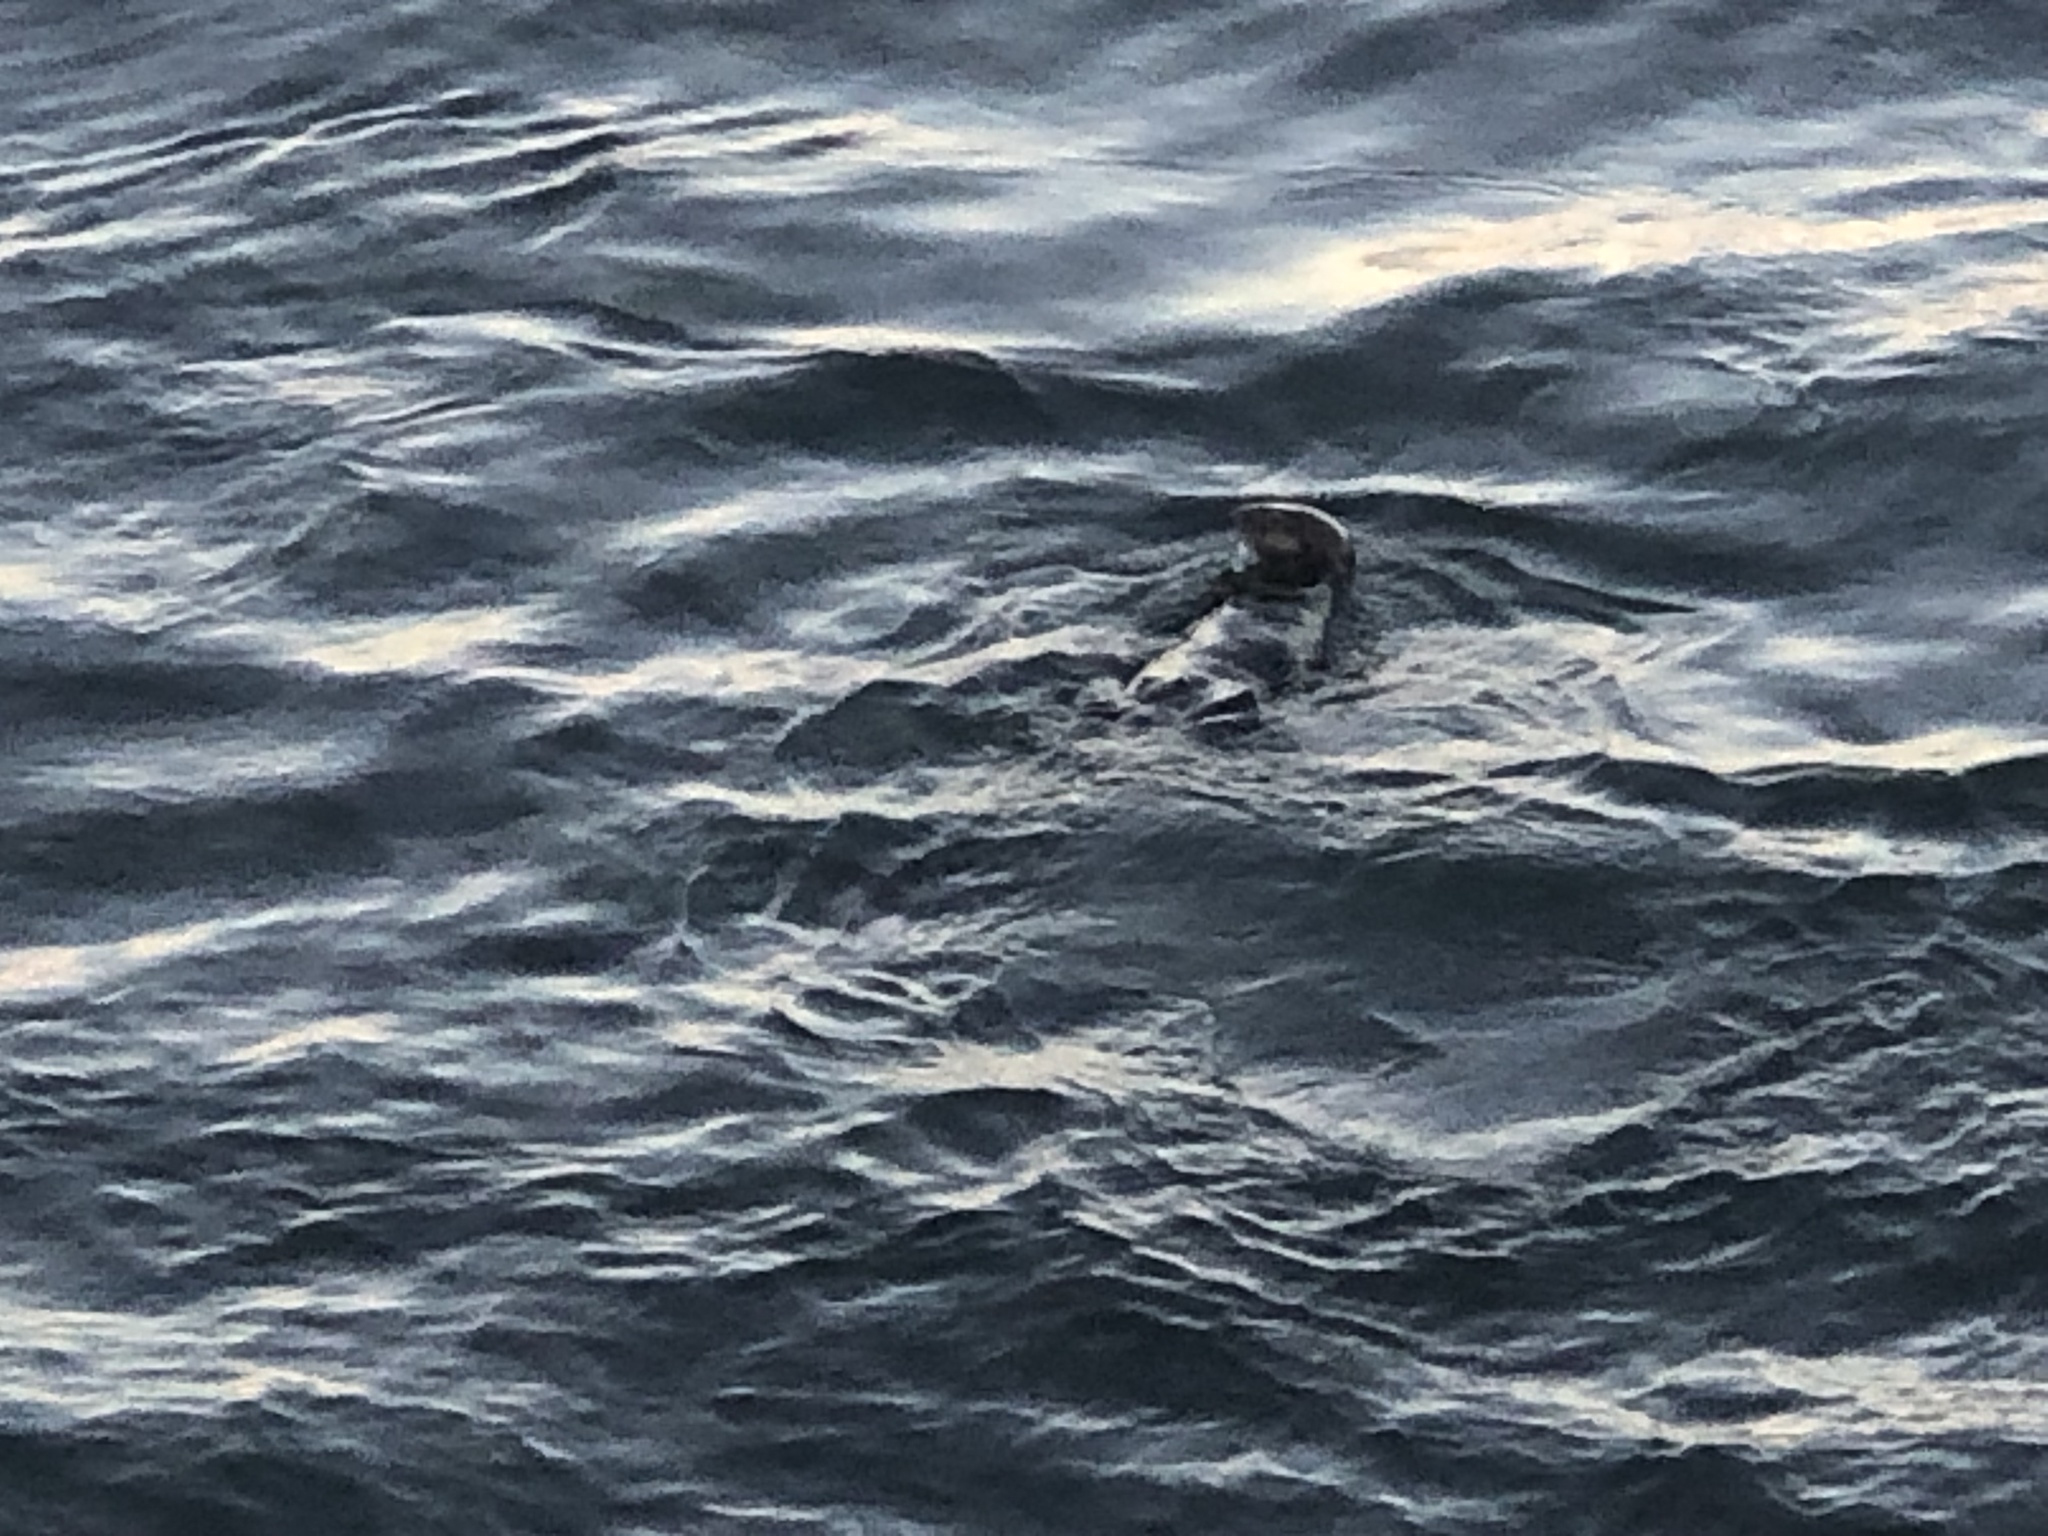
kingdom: Animalia
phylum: Chordata
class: Mammalia
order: Carnivora
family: Mustelidae
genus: Enhydra
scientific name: Enhydra lutris
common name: Sea otter
